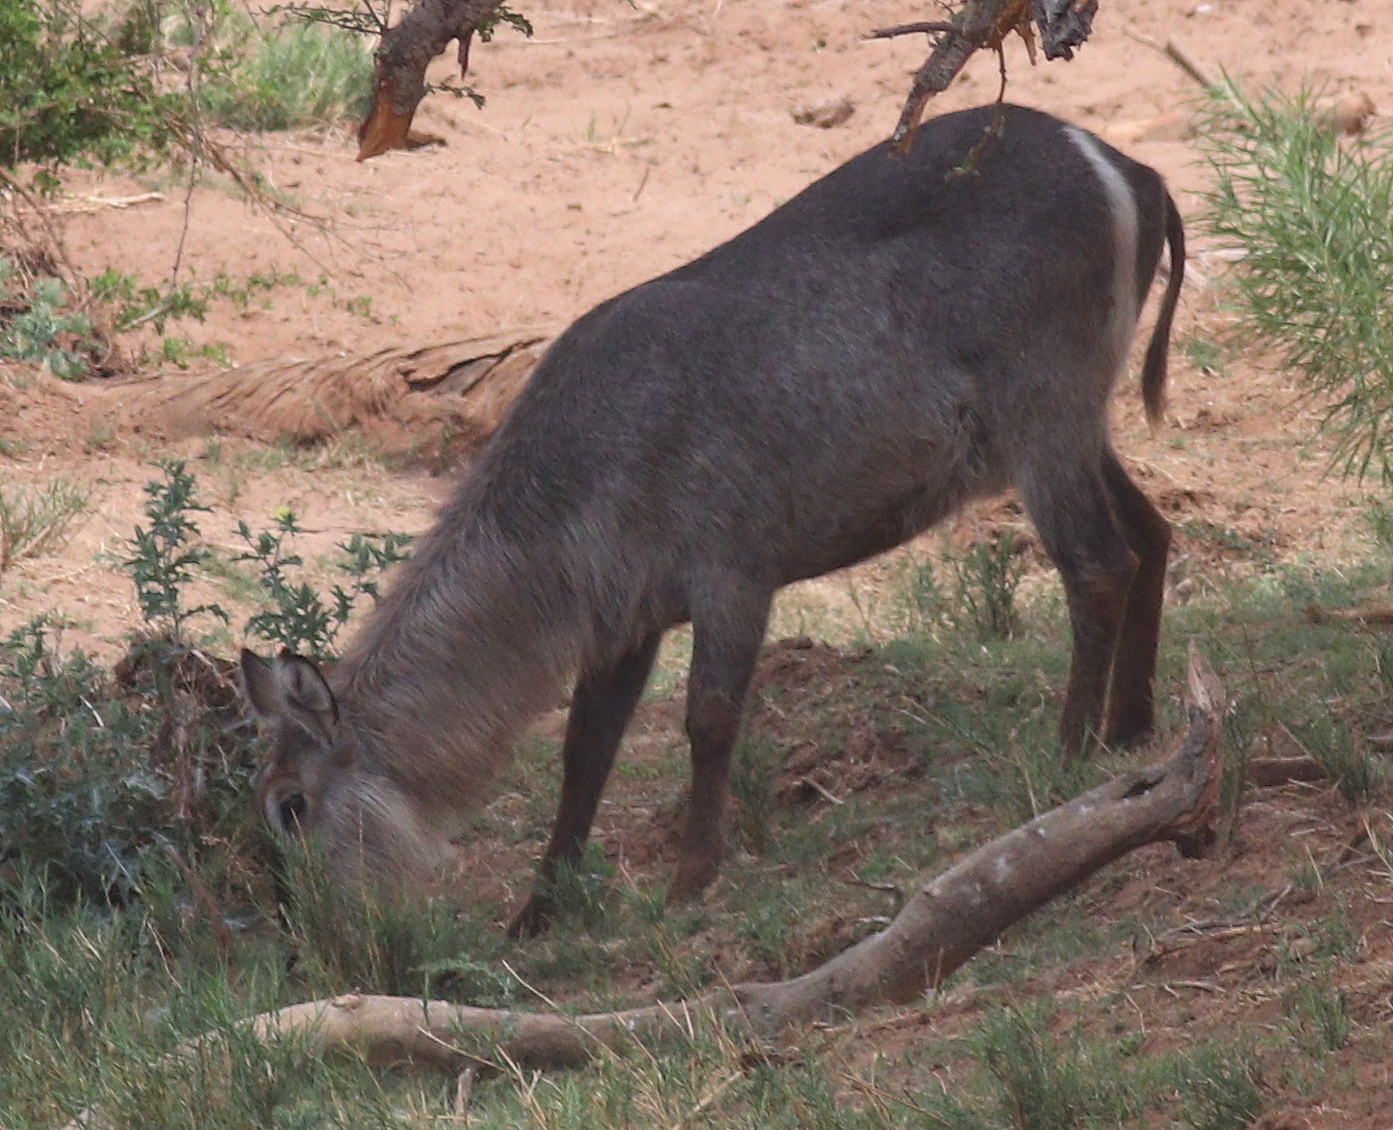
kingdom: Animalia
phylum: Chordata
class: Mammalia
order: Artiodactyla
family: Bovidae
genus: Kobus
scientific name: Kobus ellipsiprymnus
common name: Waterbuck
